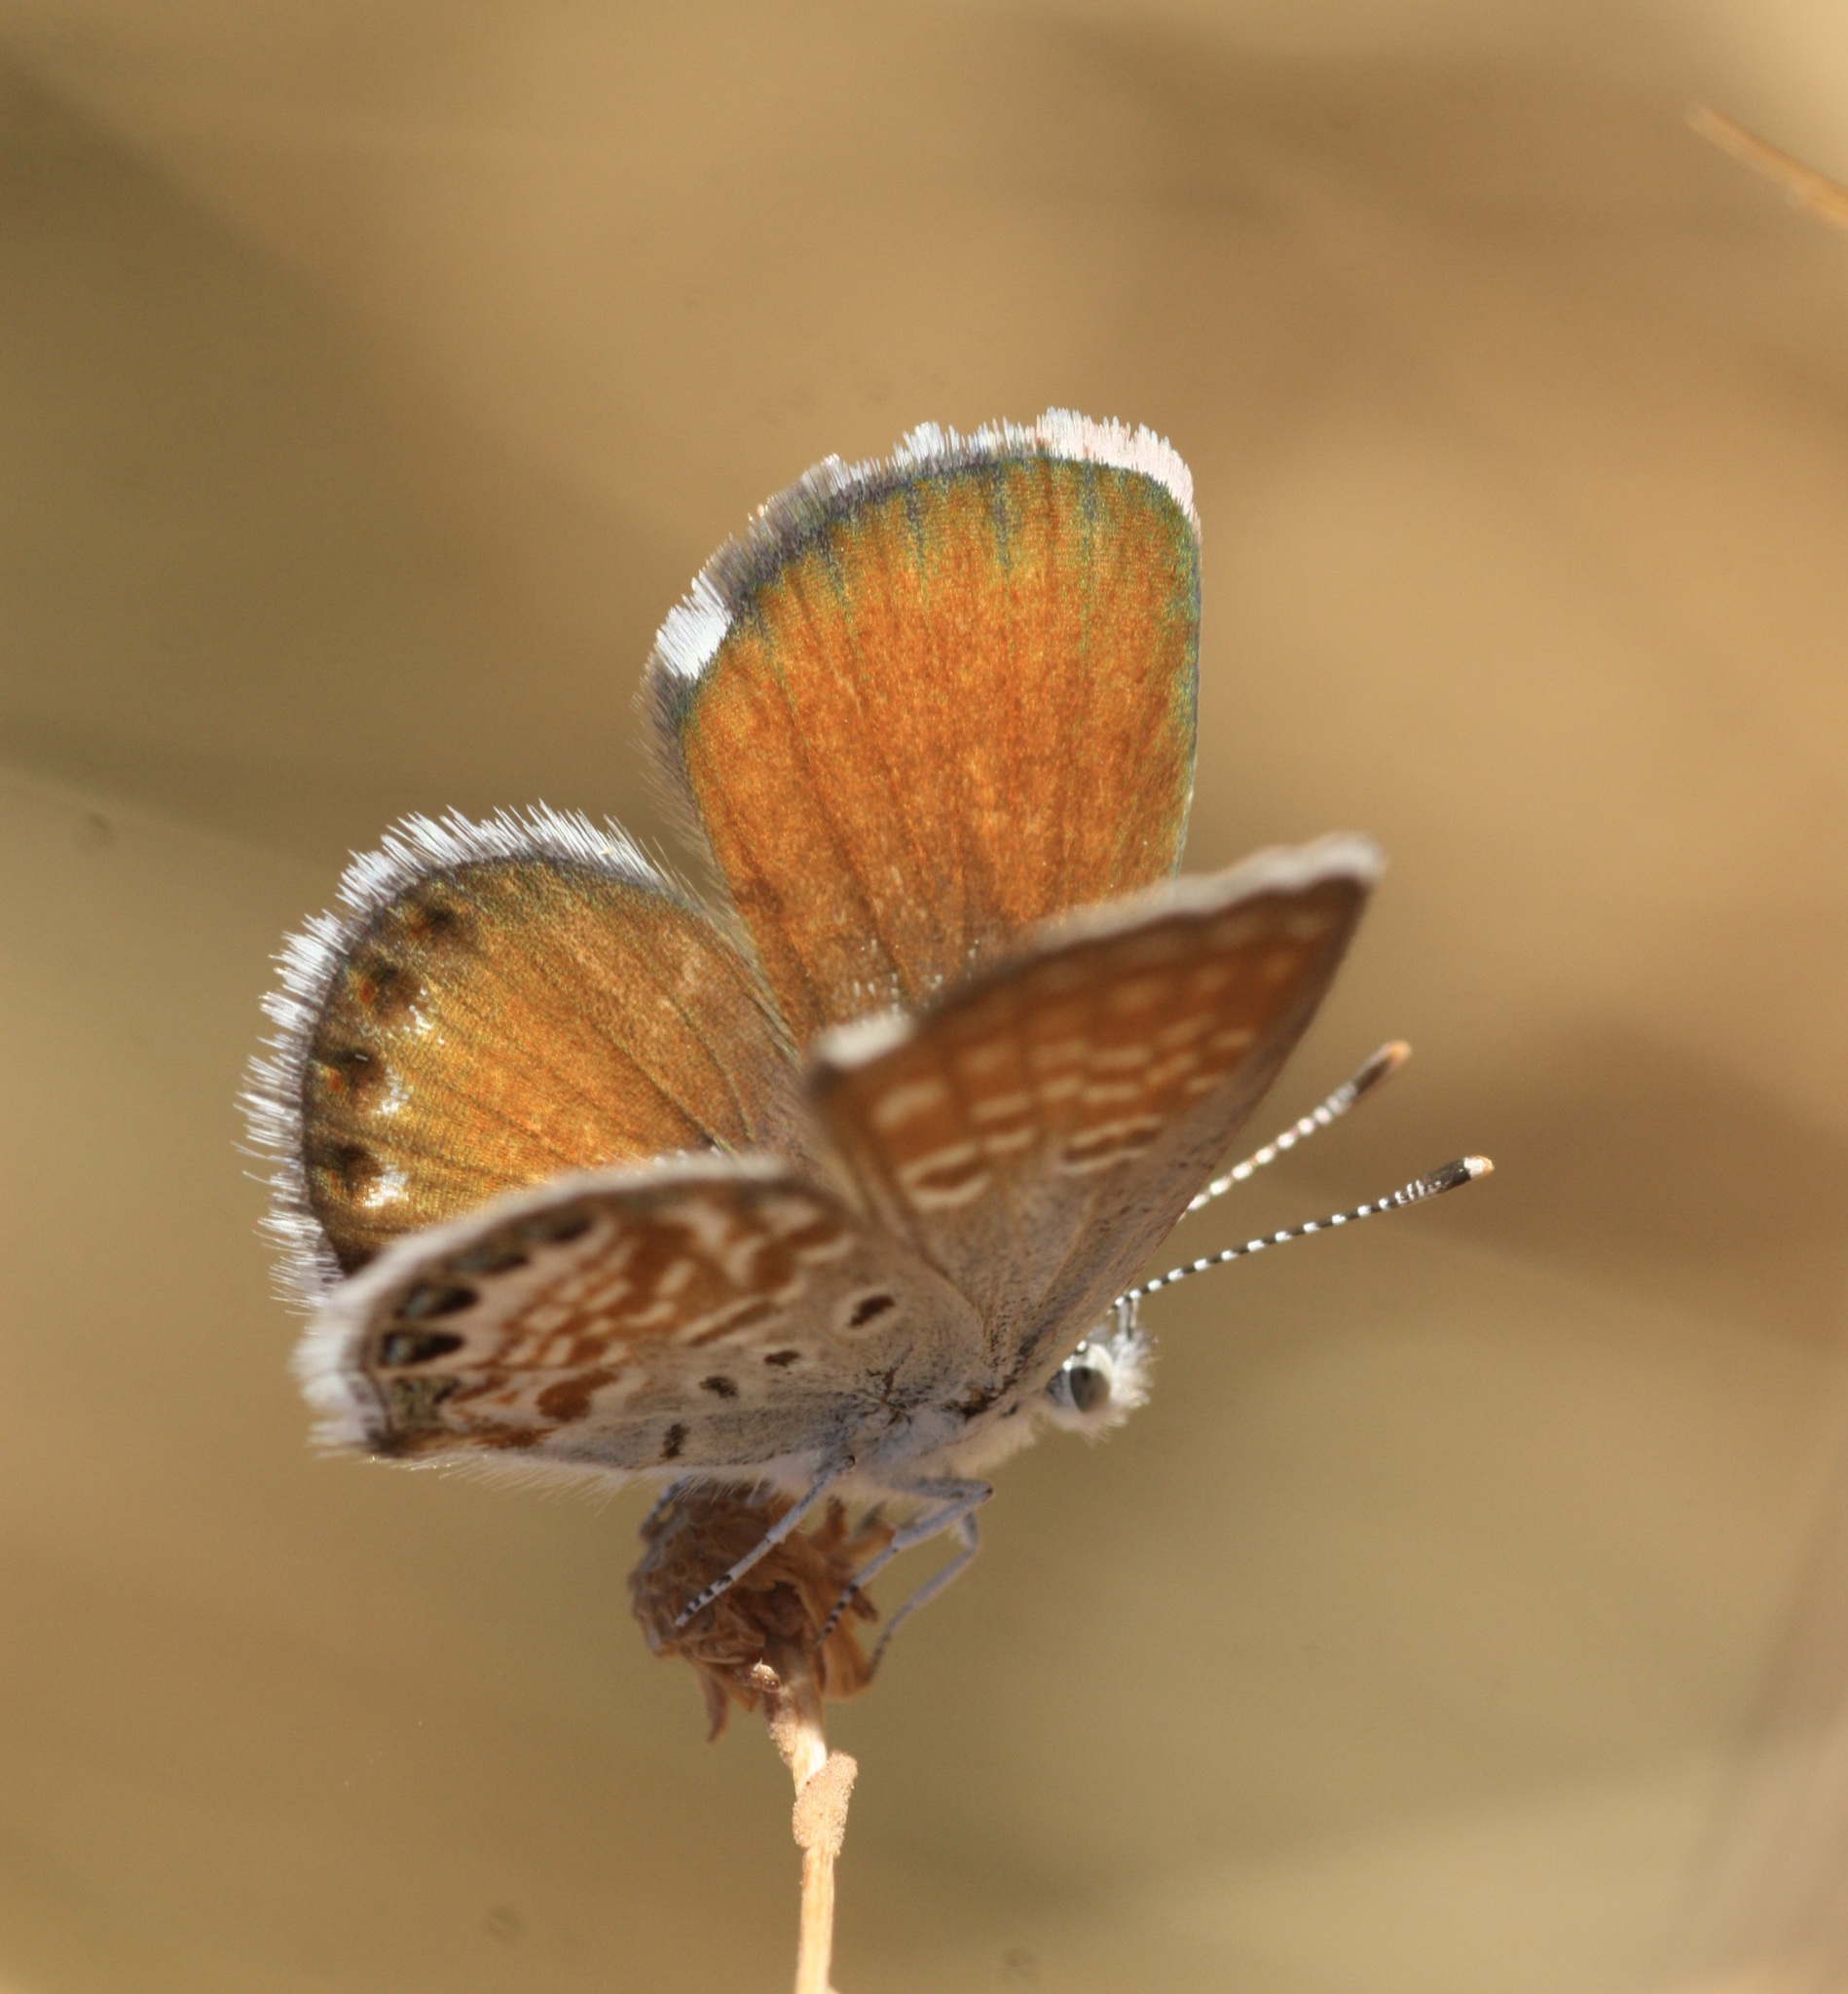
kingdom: Animalia
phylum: Arthropoda
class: Insecta
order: Lepidoptera
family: Lycaenidae
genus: Brephidium
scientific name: Brephidium exilis
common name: Pygmy blue
